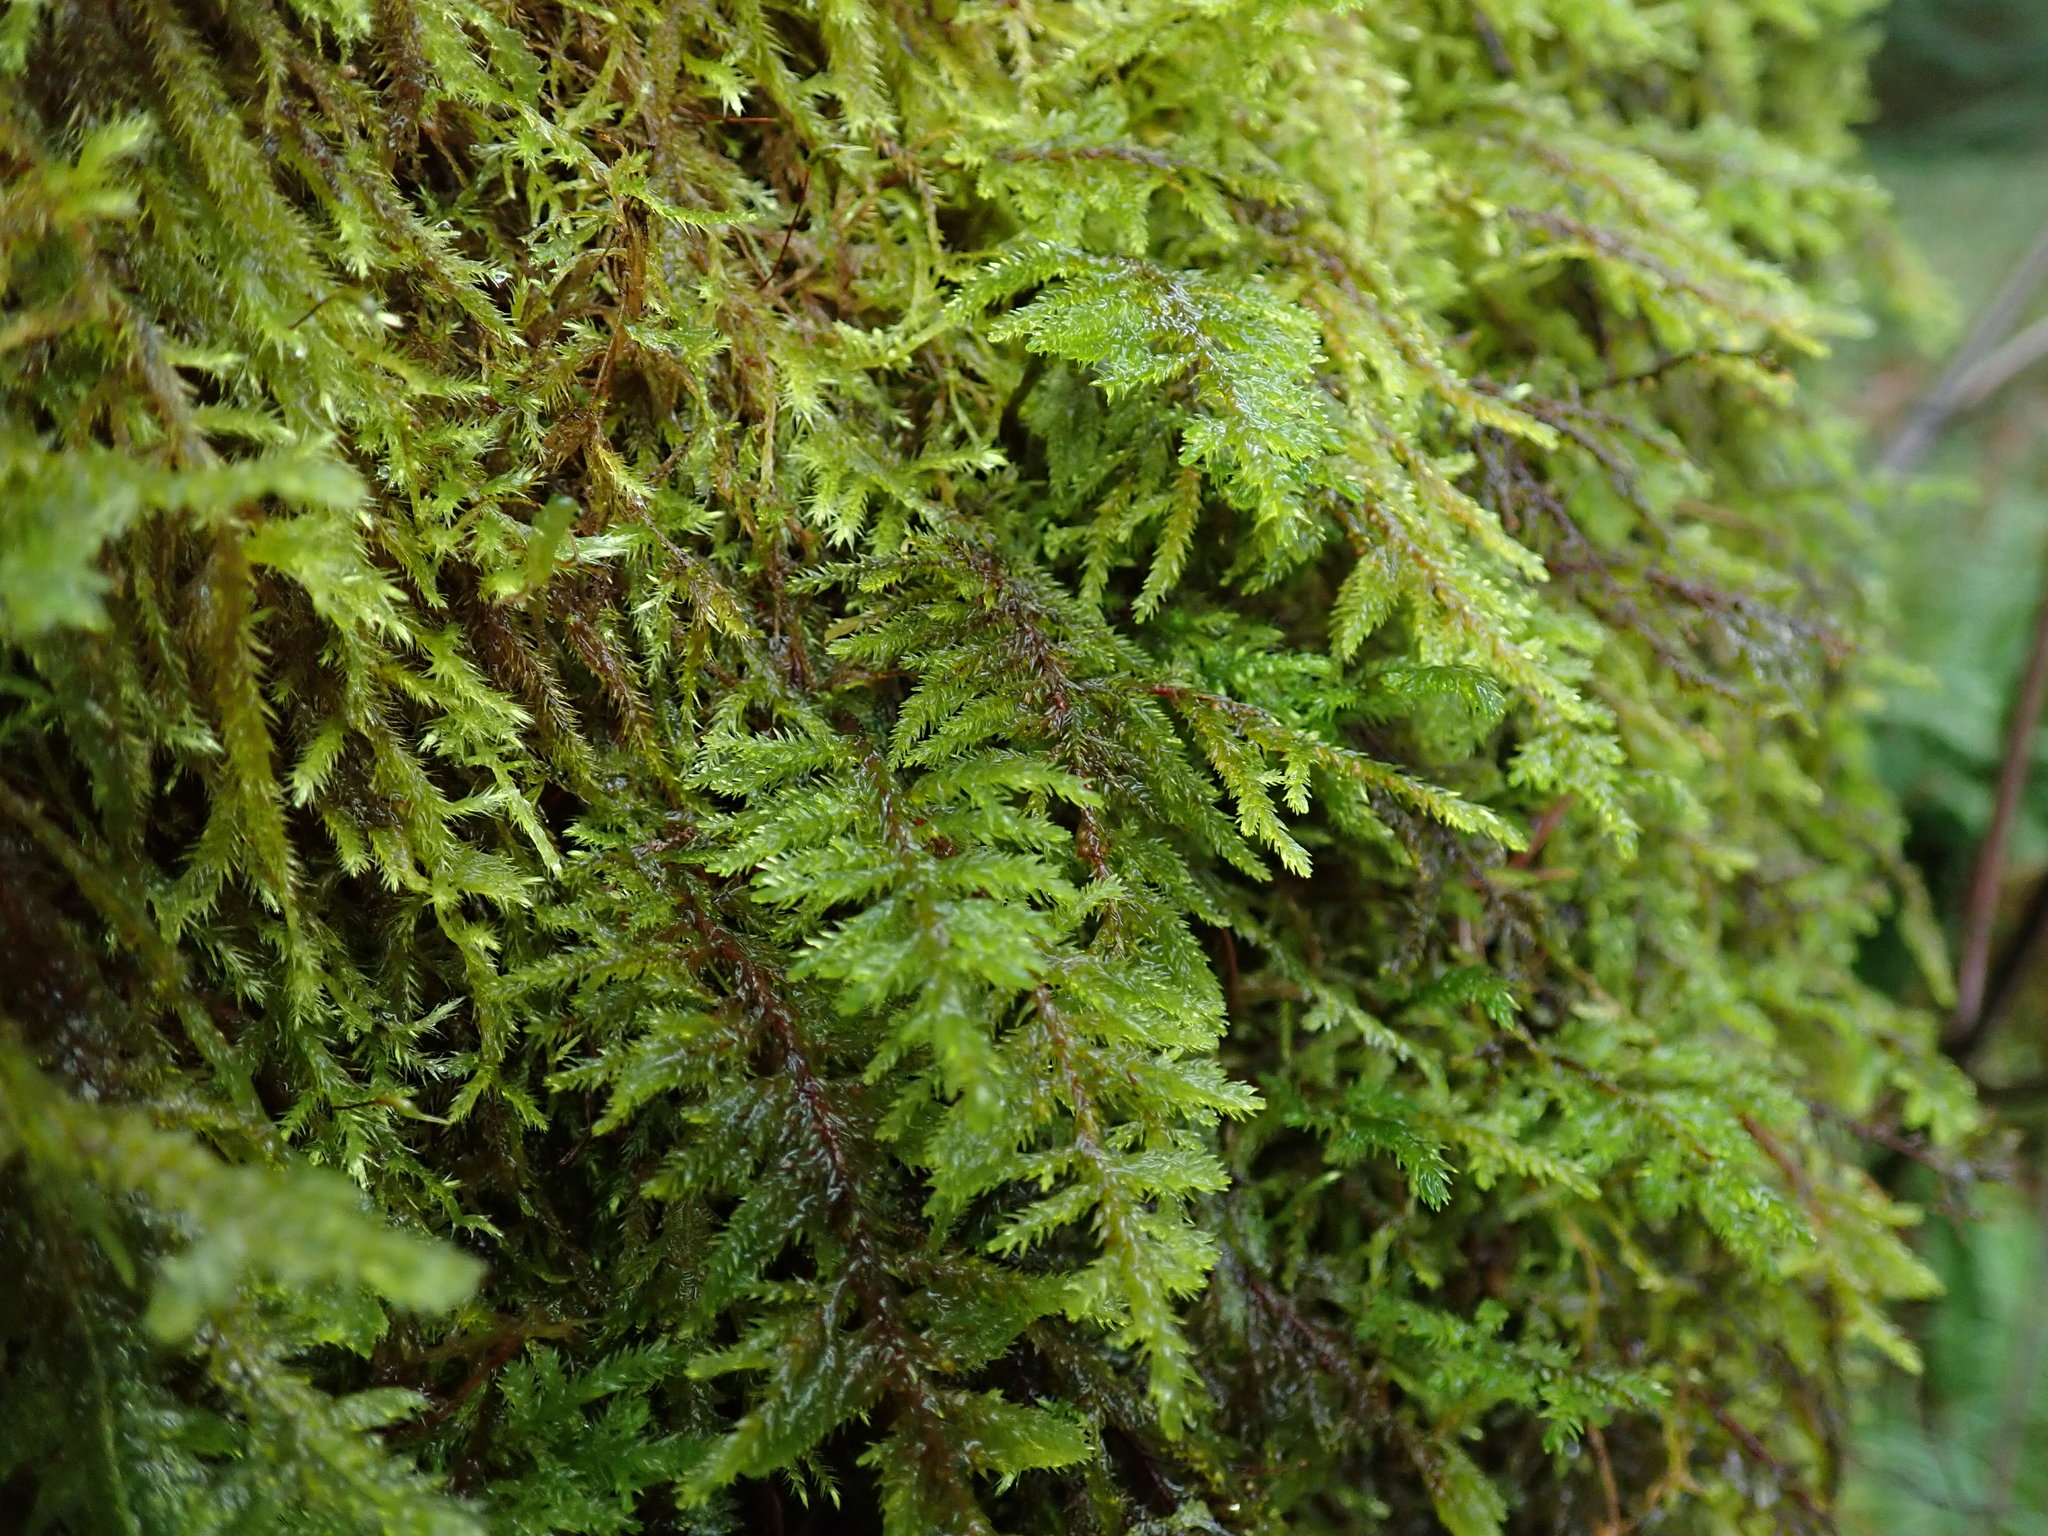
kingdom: Plantae
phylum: Bryophyta
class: Bryopsida
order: Hypnales
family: Cryphaeaceae
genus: Dendroalsia
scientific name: Dendroalsia abietina
